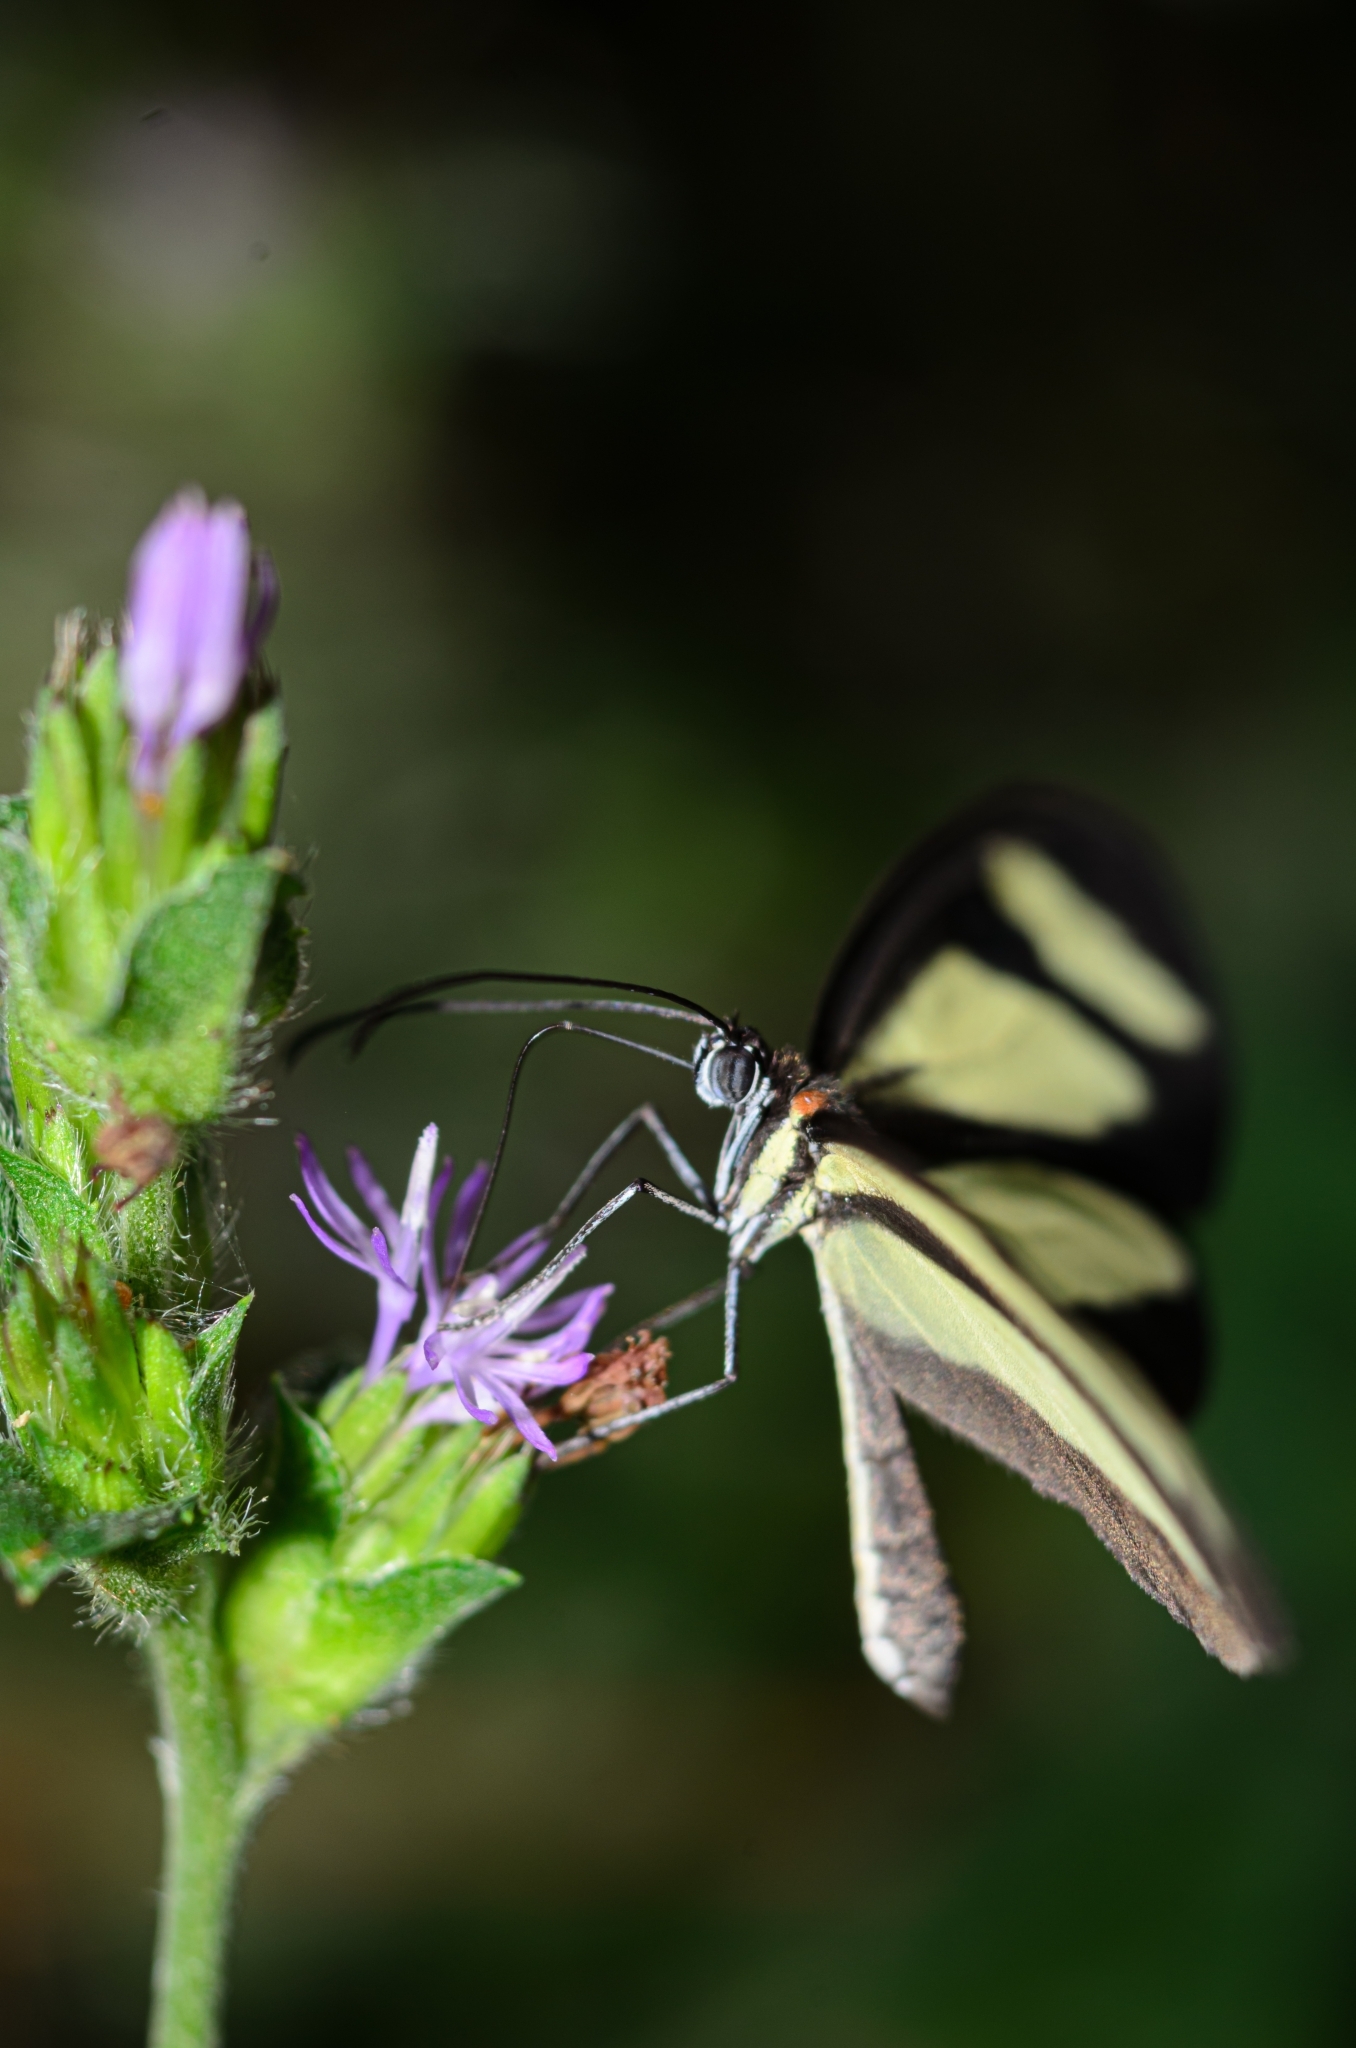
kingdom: Animalia
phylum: Arthropoda
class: Insecta
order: Lepidoptera
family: Nymphalidae
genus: Aeria
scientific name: Aeria olena
